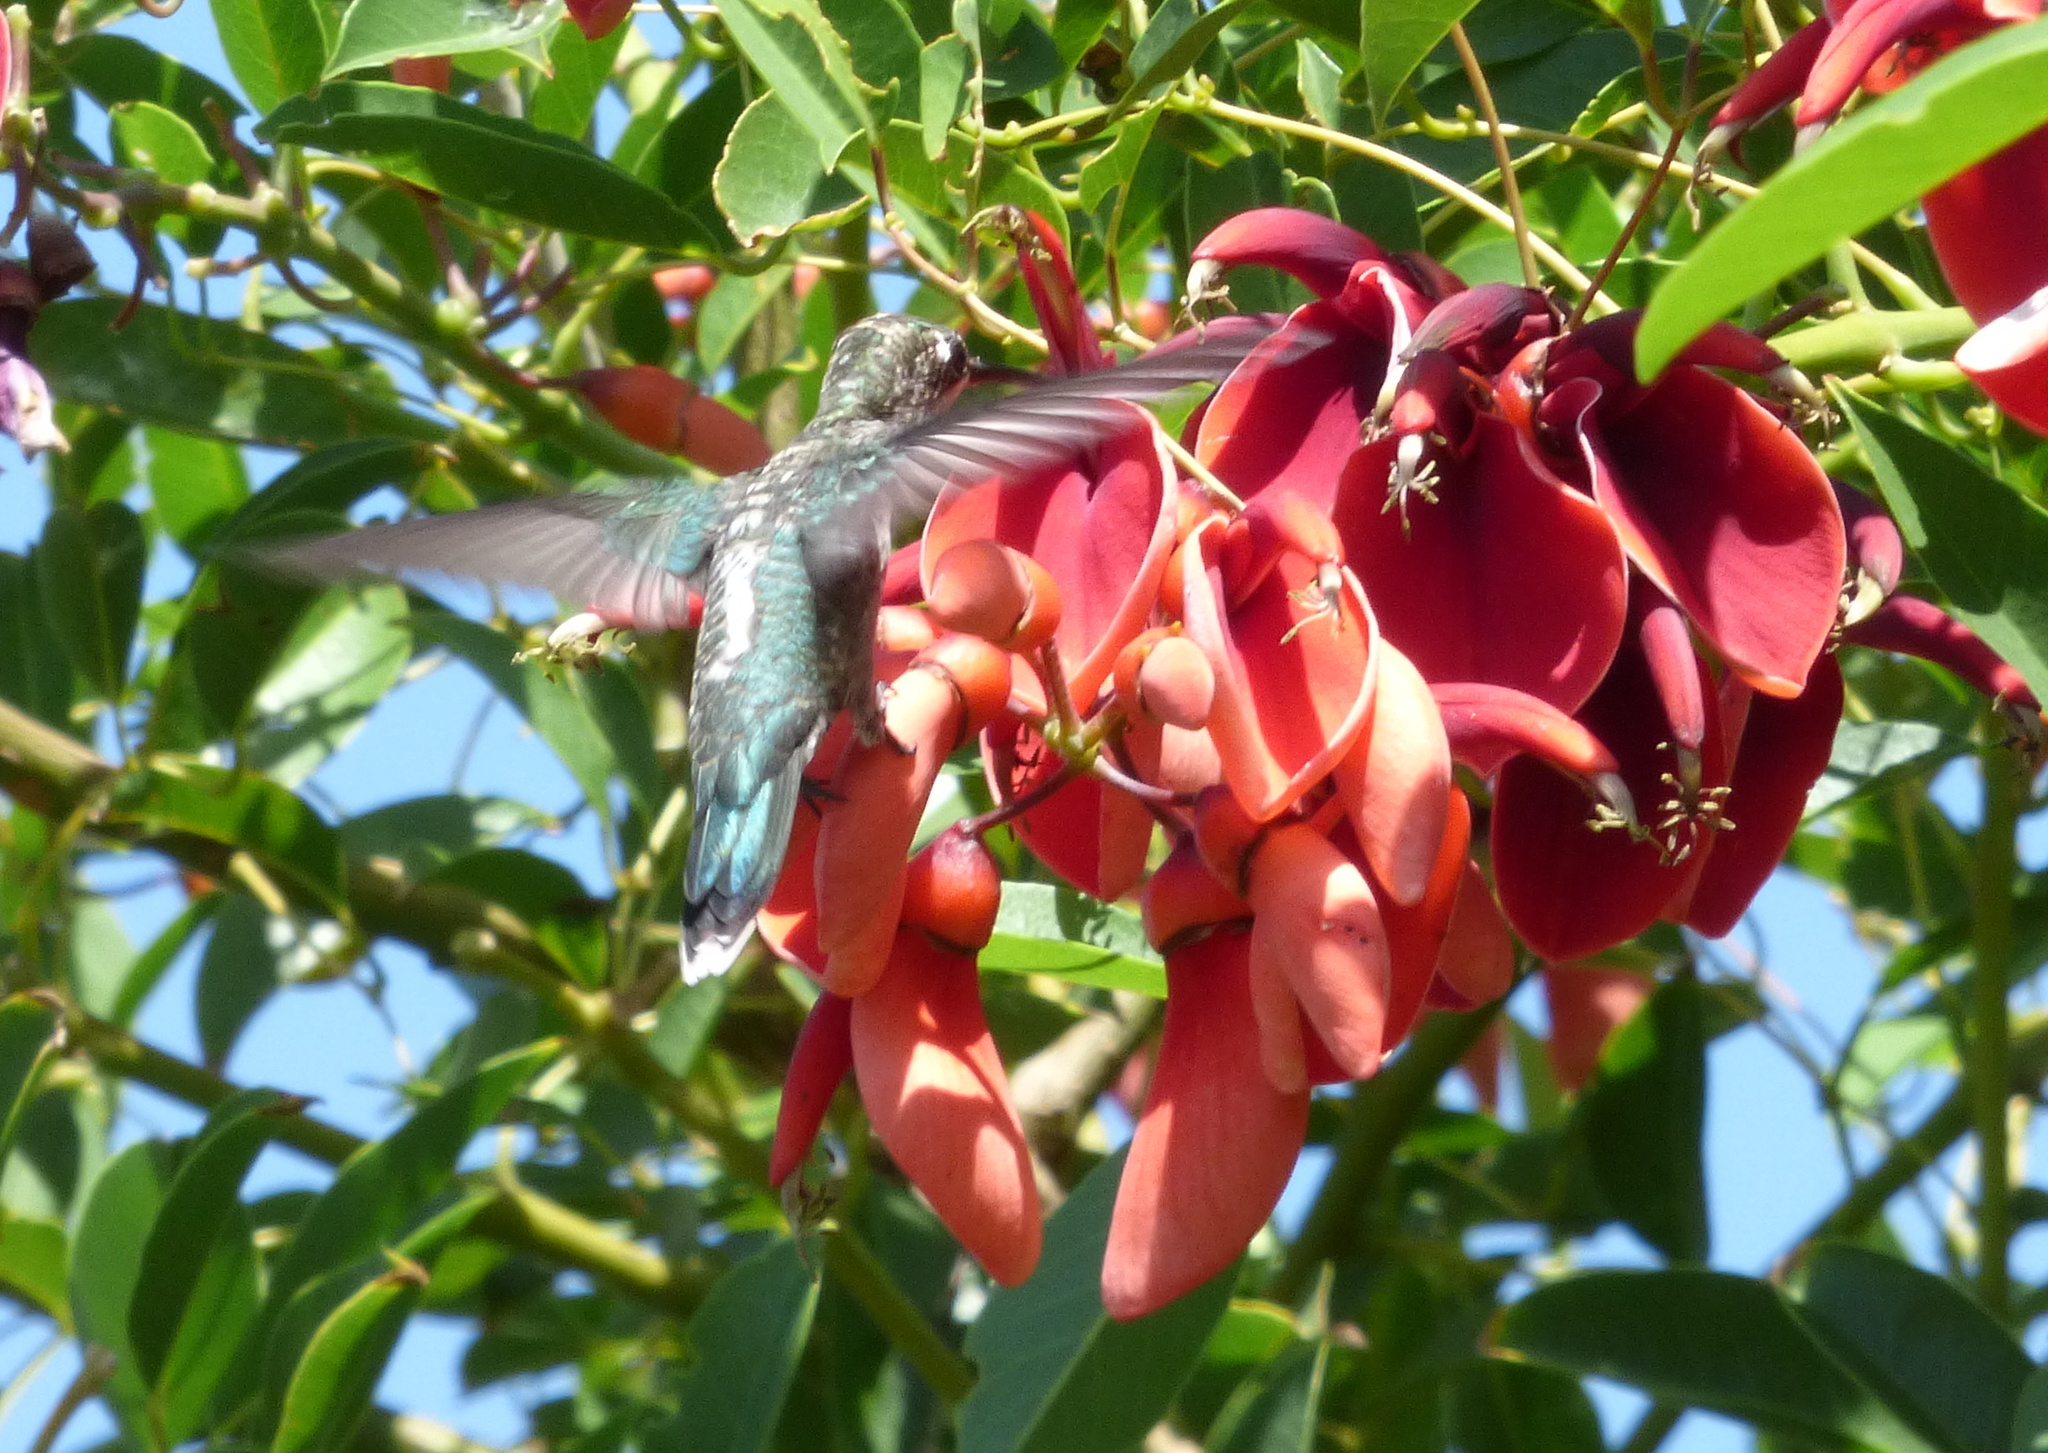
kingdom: Animalia
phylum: Chordata
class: Aves
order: Apodiformes
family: Trochilidae
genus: Heliomaster
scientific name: Heliomaster furcifer
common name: Blue-tufted starthroat
